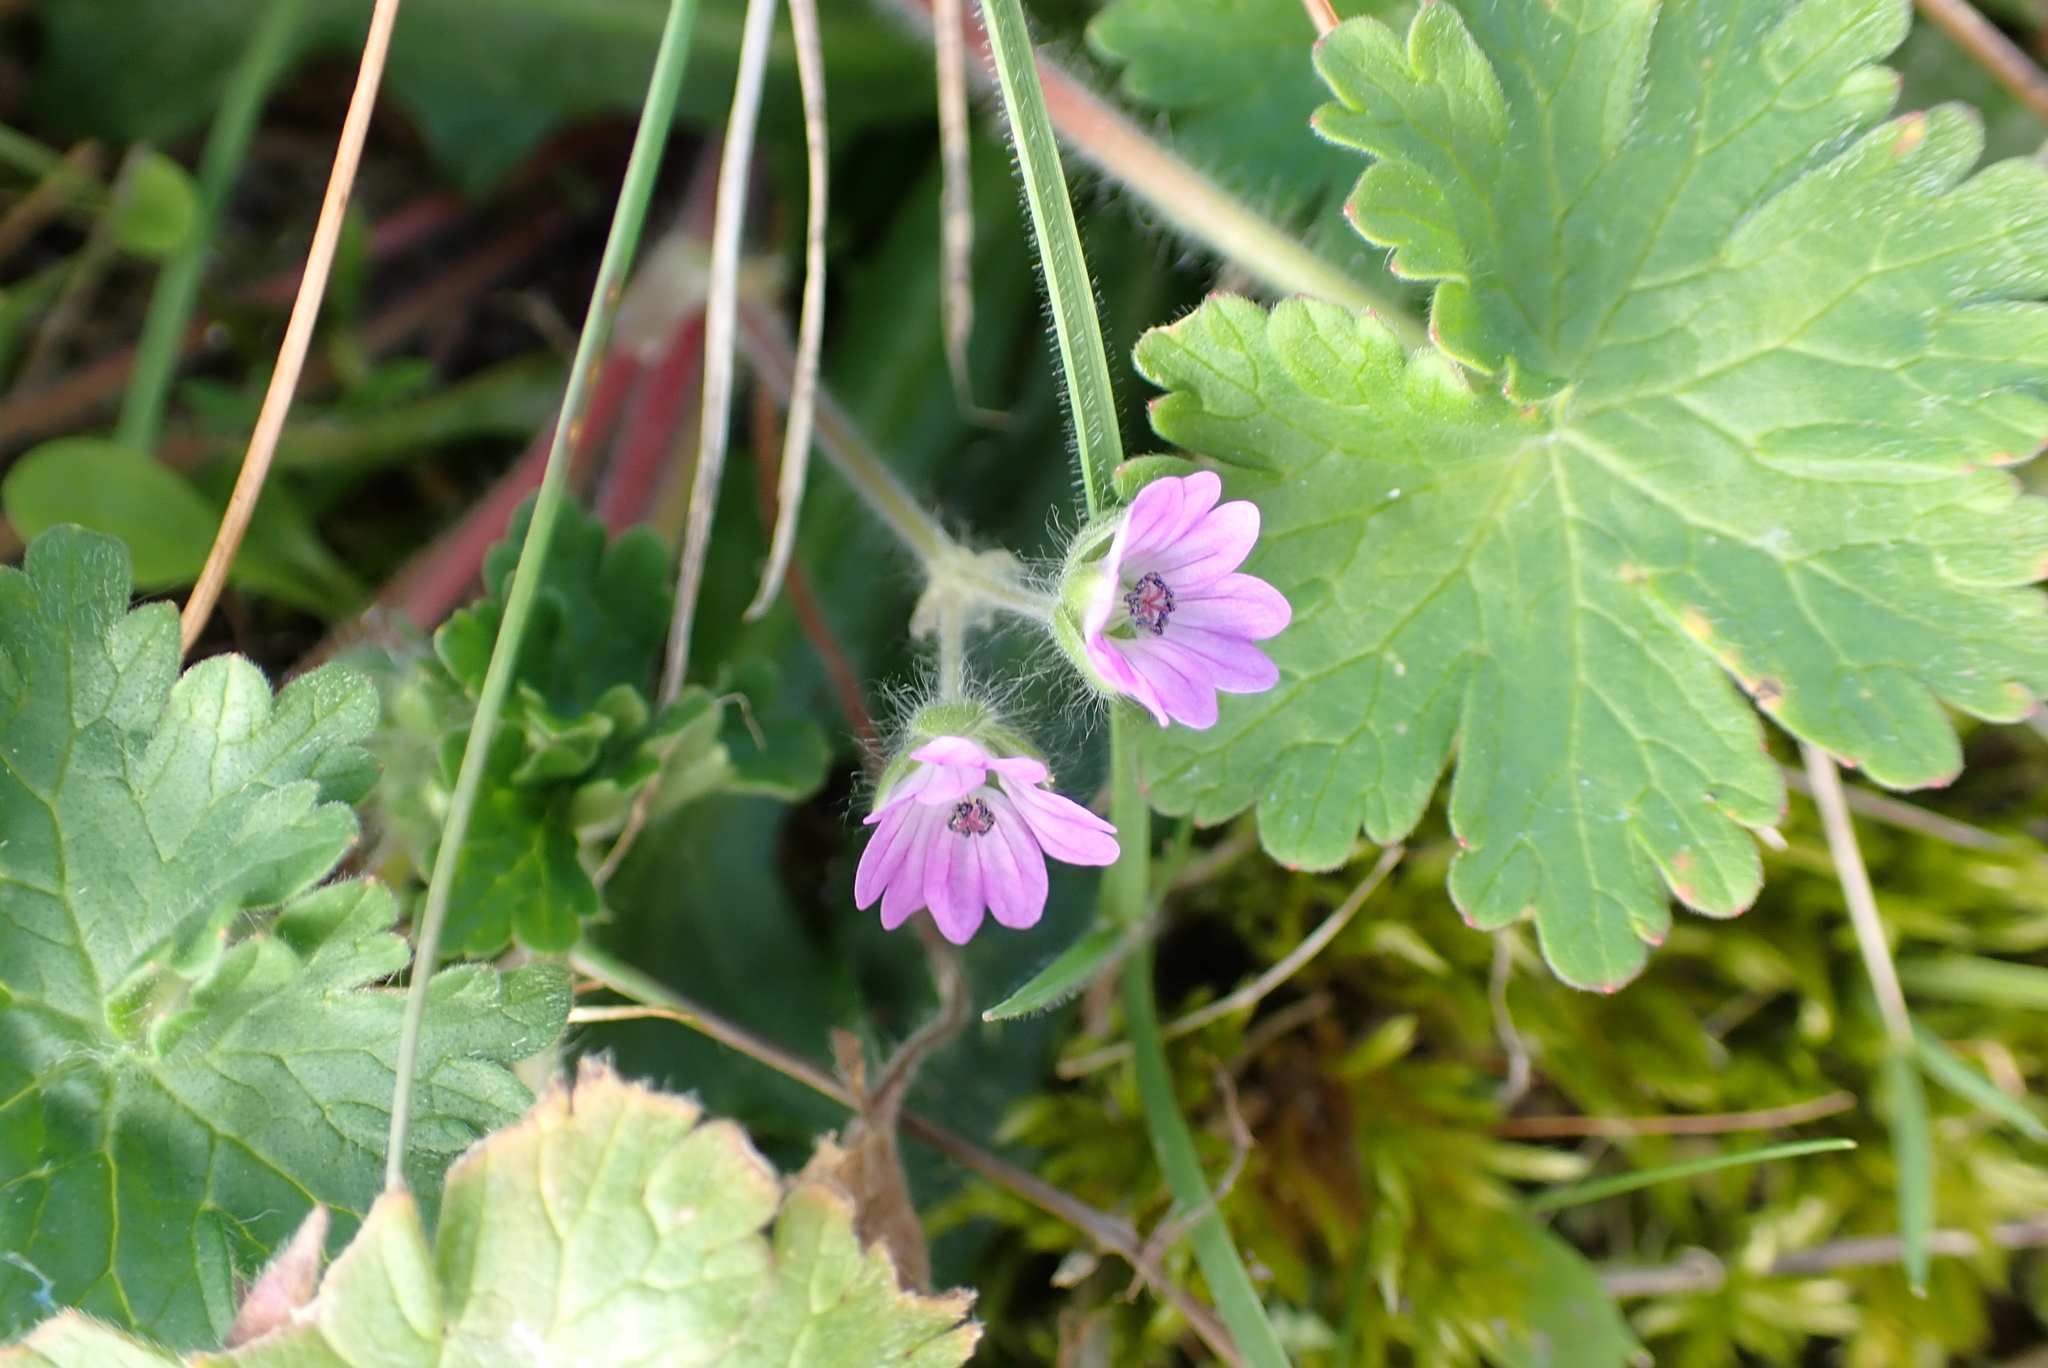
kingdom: Plantae
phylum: Tracheophyta
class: Magnoliopsida
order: Geraniales
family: Geraniaceae
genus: Geranium
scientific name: Geranium molle
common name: Dove's-foot crane's-bill
